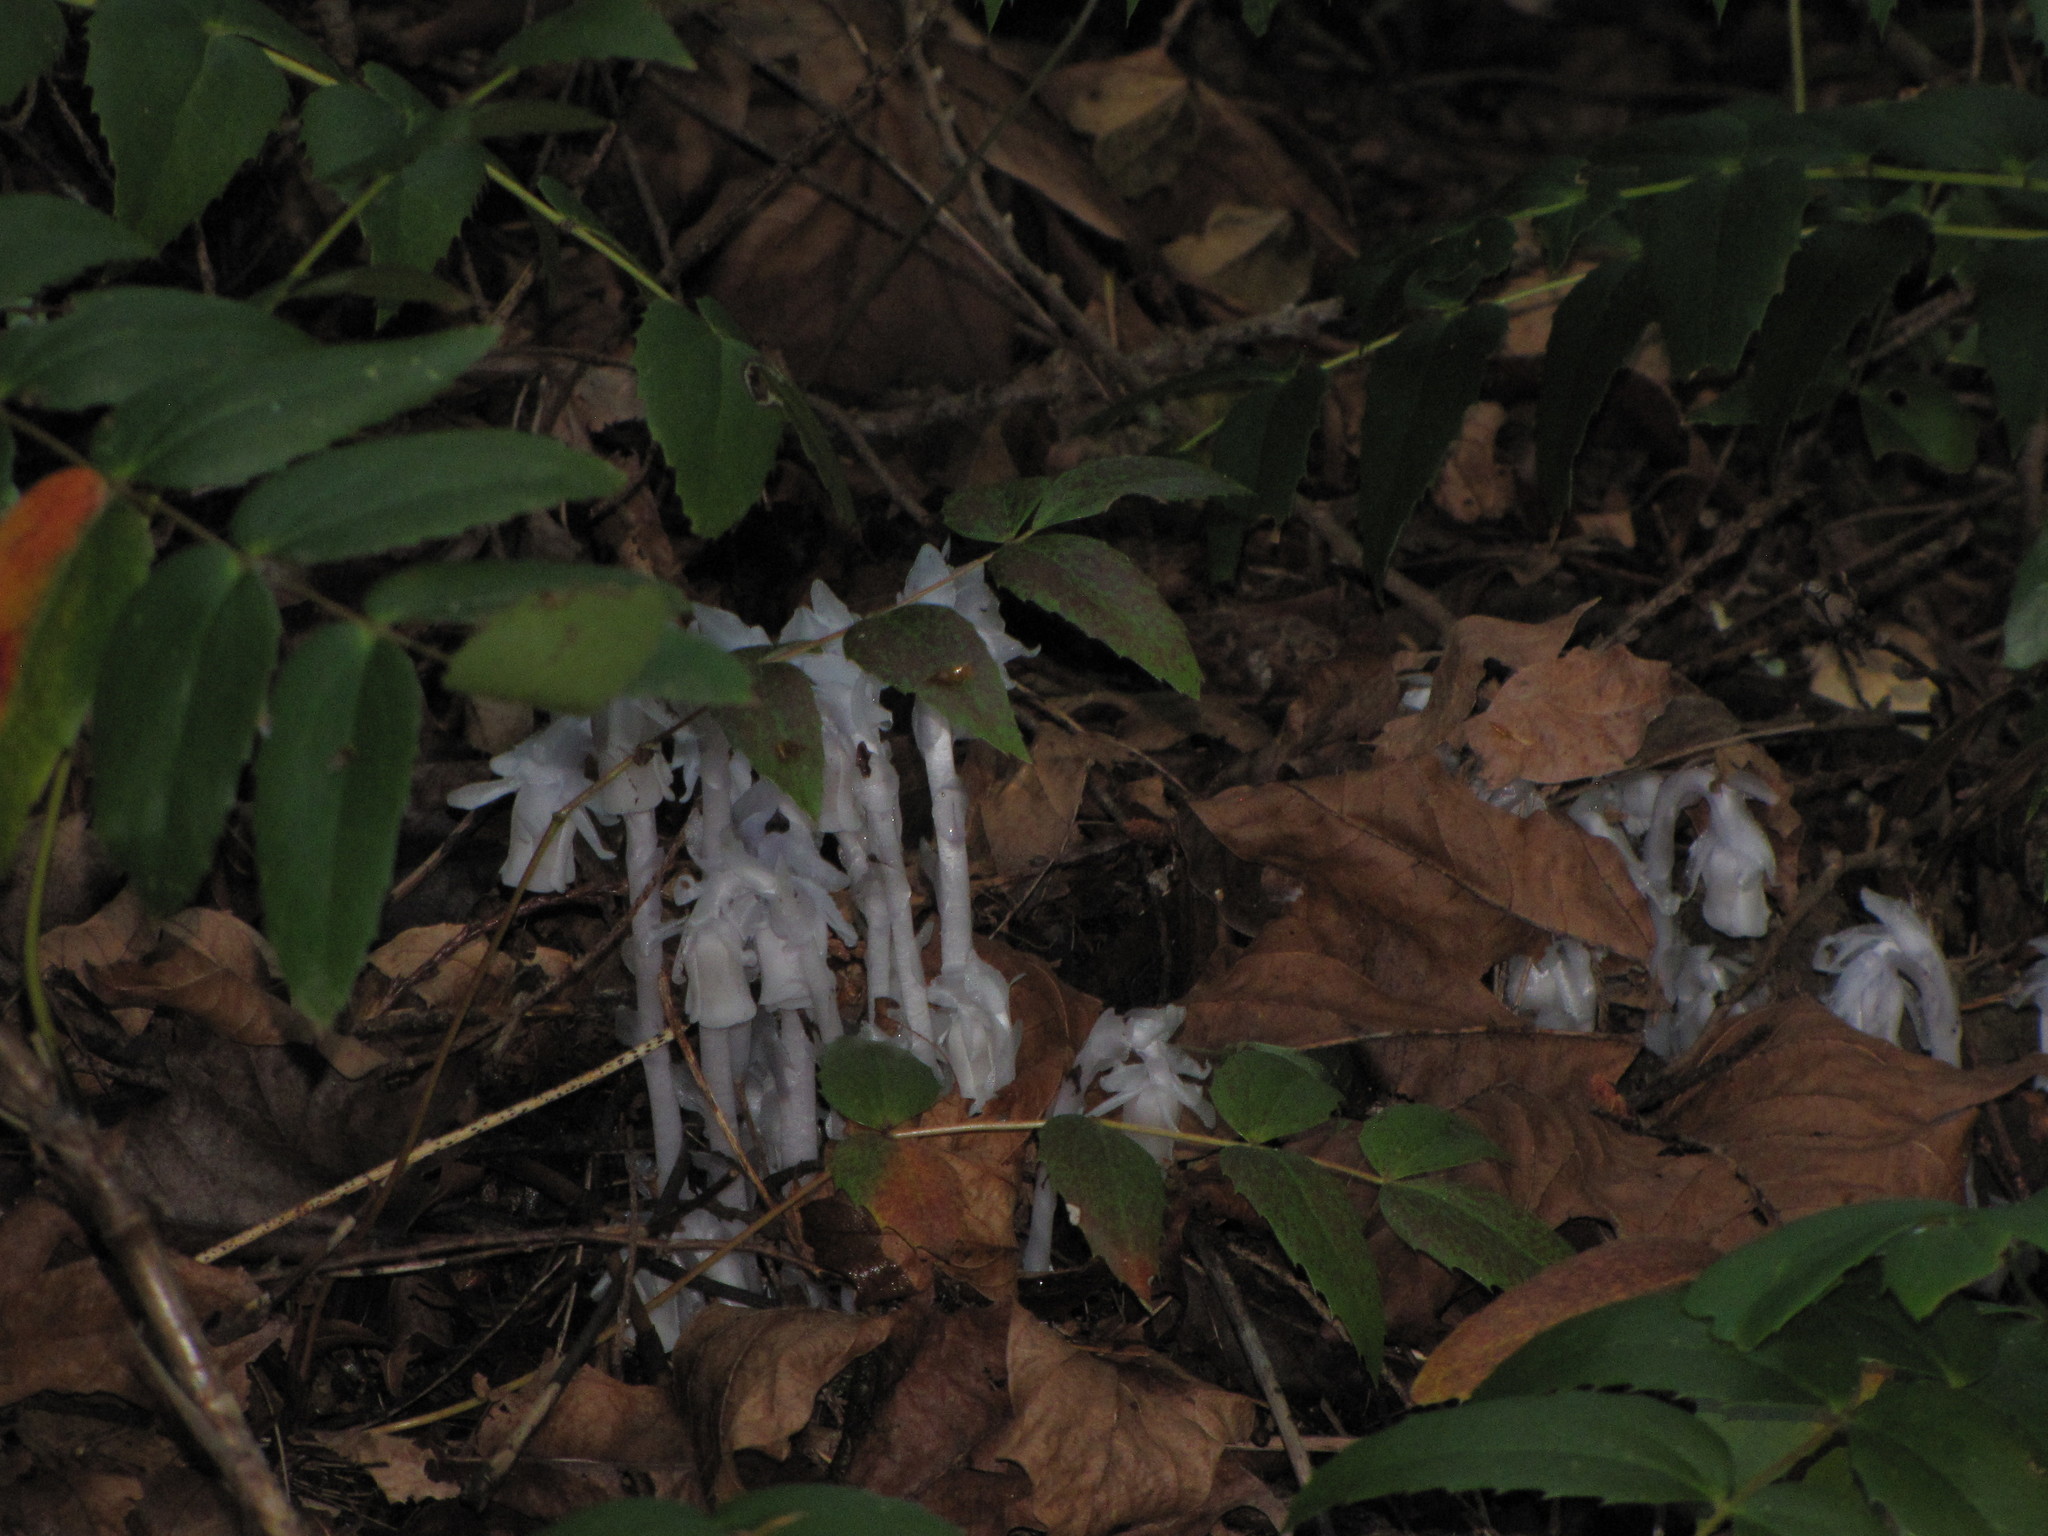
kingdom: Plantae
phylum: Tracheophyta
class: Magnoliopsida
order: Ericales
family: Ericaceae
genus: Monotropa
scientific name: Monotropa uniflora
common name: Convulsion root
